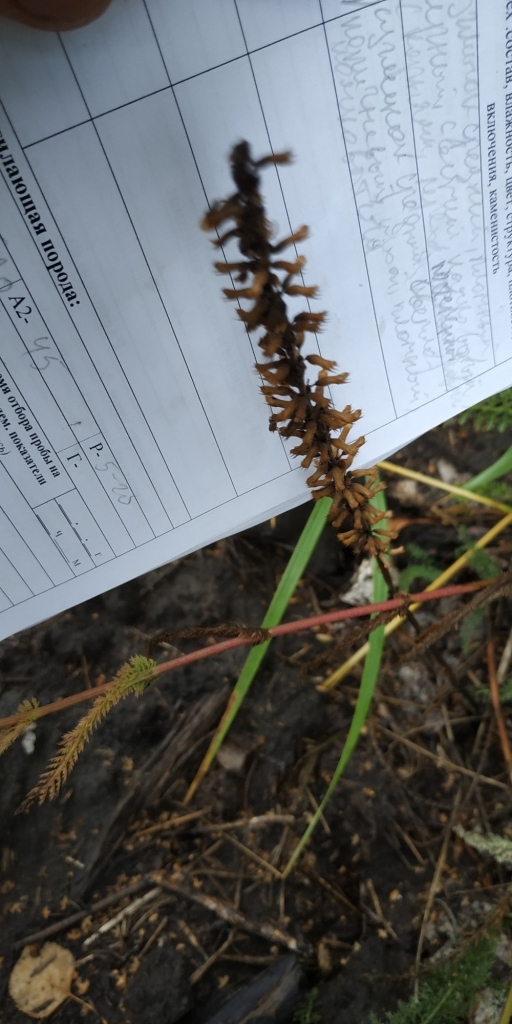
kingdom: Plantae
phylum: Tracheophyta
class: Magnoliopsida
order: Lamiales
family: Lamiaceae
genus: Dracocephalum
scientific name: Dracocephalum thymiflorum
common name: Thymeleaf dragonhead
